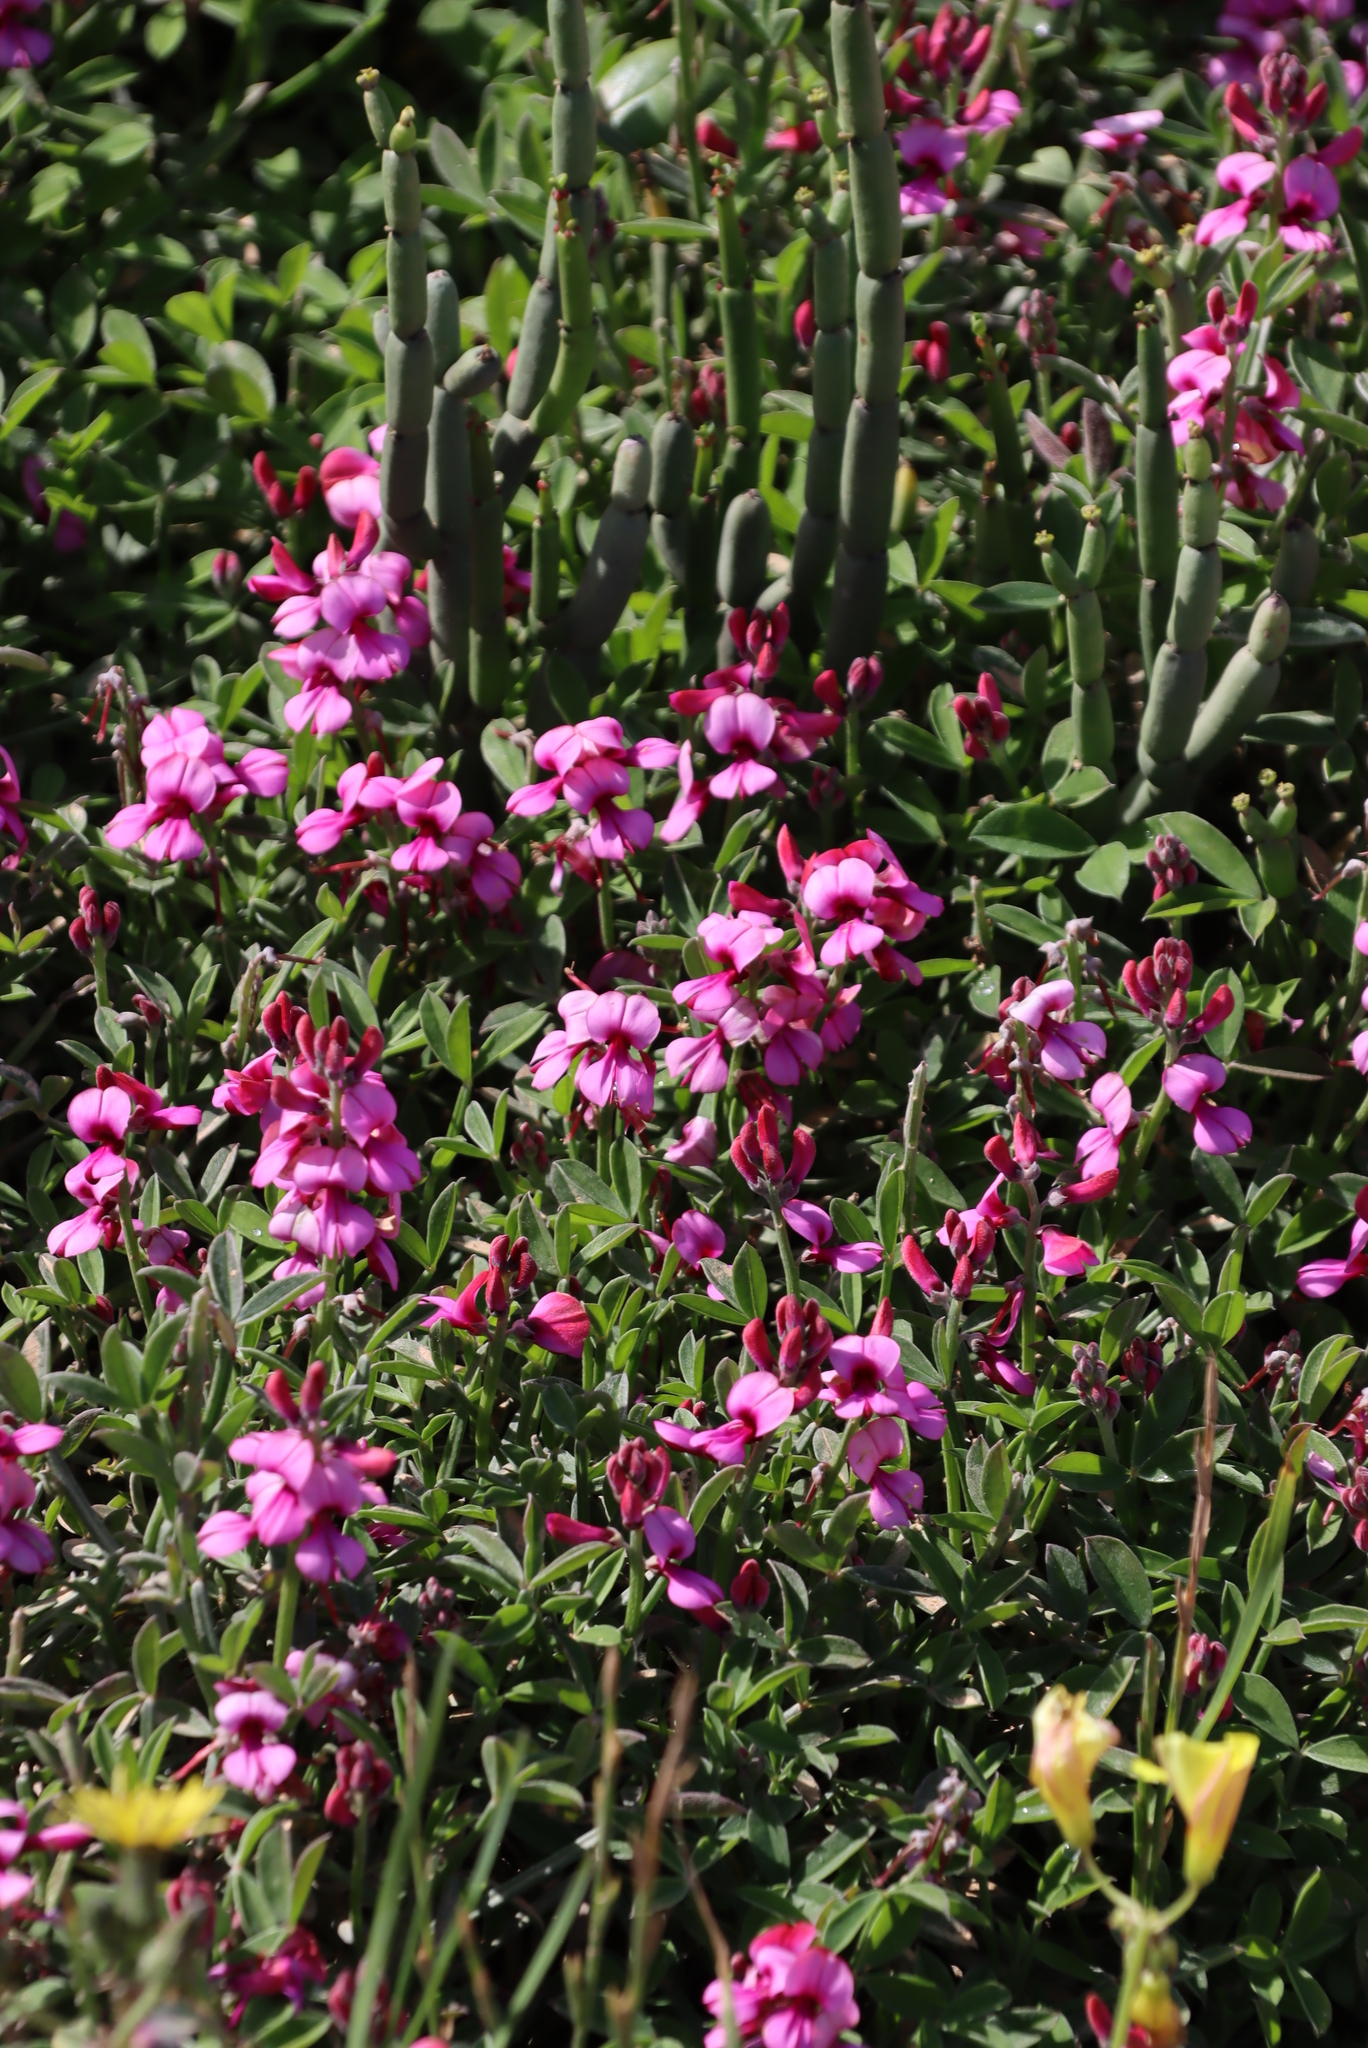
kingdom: Plantae
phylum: Tracheophyta
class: Magnoliopsida
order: Fabales
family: Fabaceae
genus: Indigofera
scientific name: Indigofera
